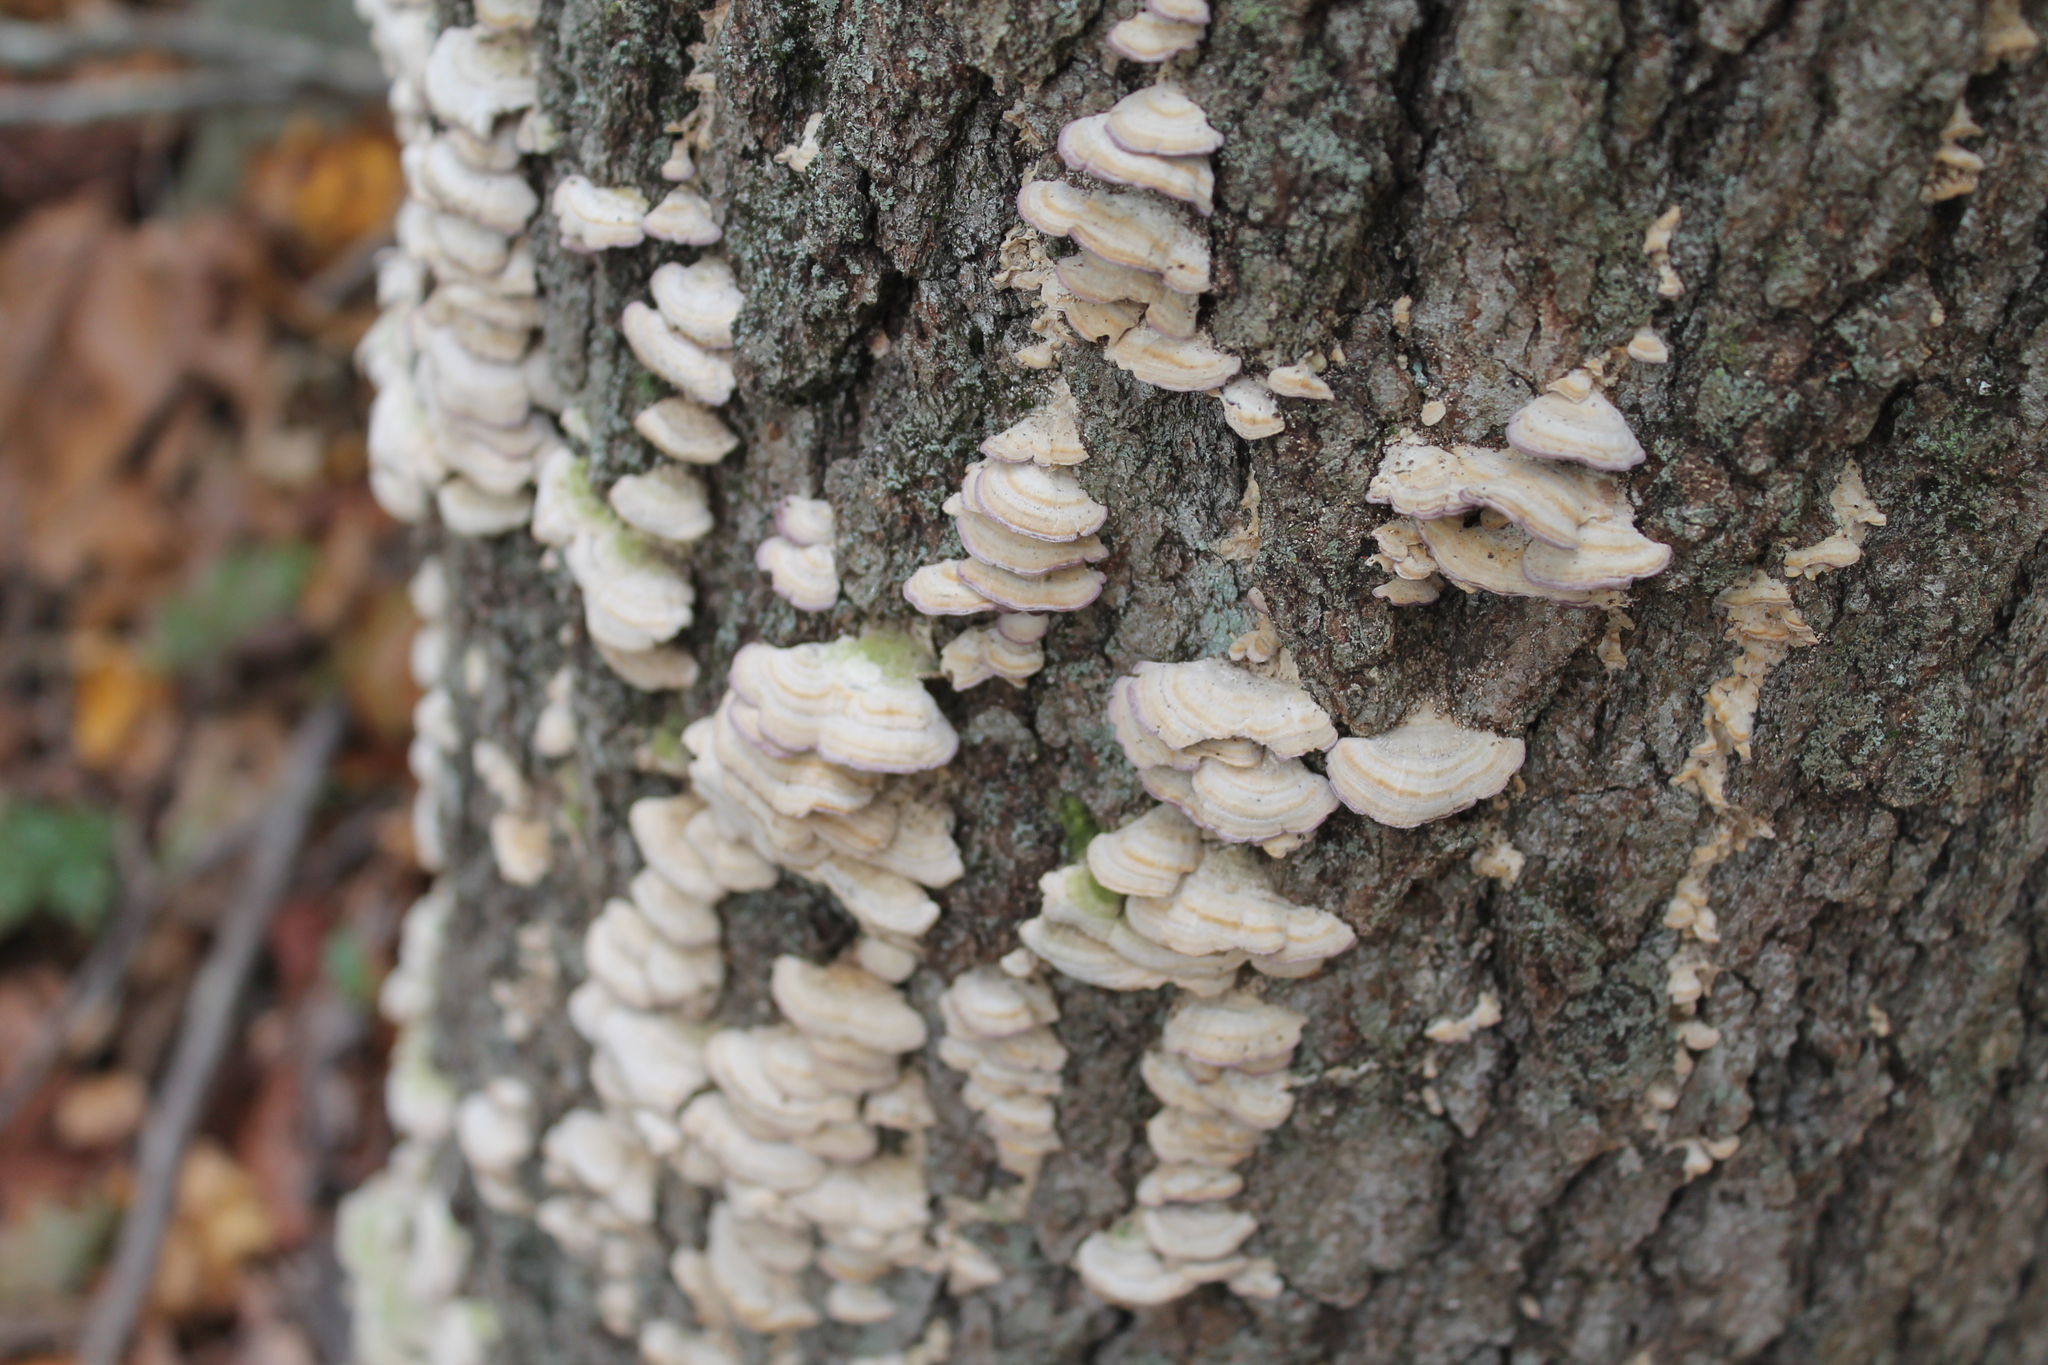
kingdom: Fungi
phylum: Basidiomycota
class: Agaricomycetes
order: Hymenochaetales
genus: Trichaptum
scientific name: Trichaptum biforme
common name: Violet-toothed polypore
